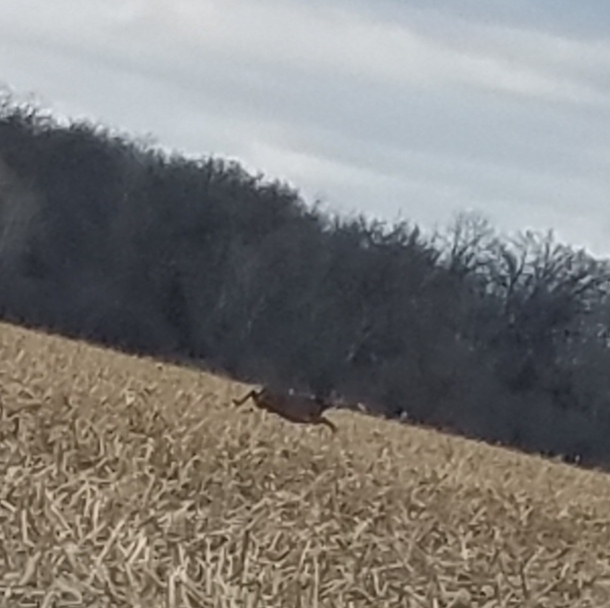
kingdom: Animalia
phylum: Chordata
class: Mammalia
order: Artiodactyla
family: Cervidae
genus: Odocoileus
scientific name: Odocoileus virginianus
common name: White-tailed deer
